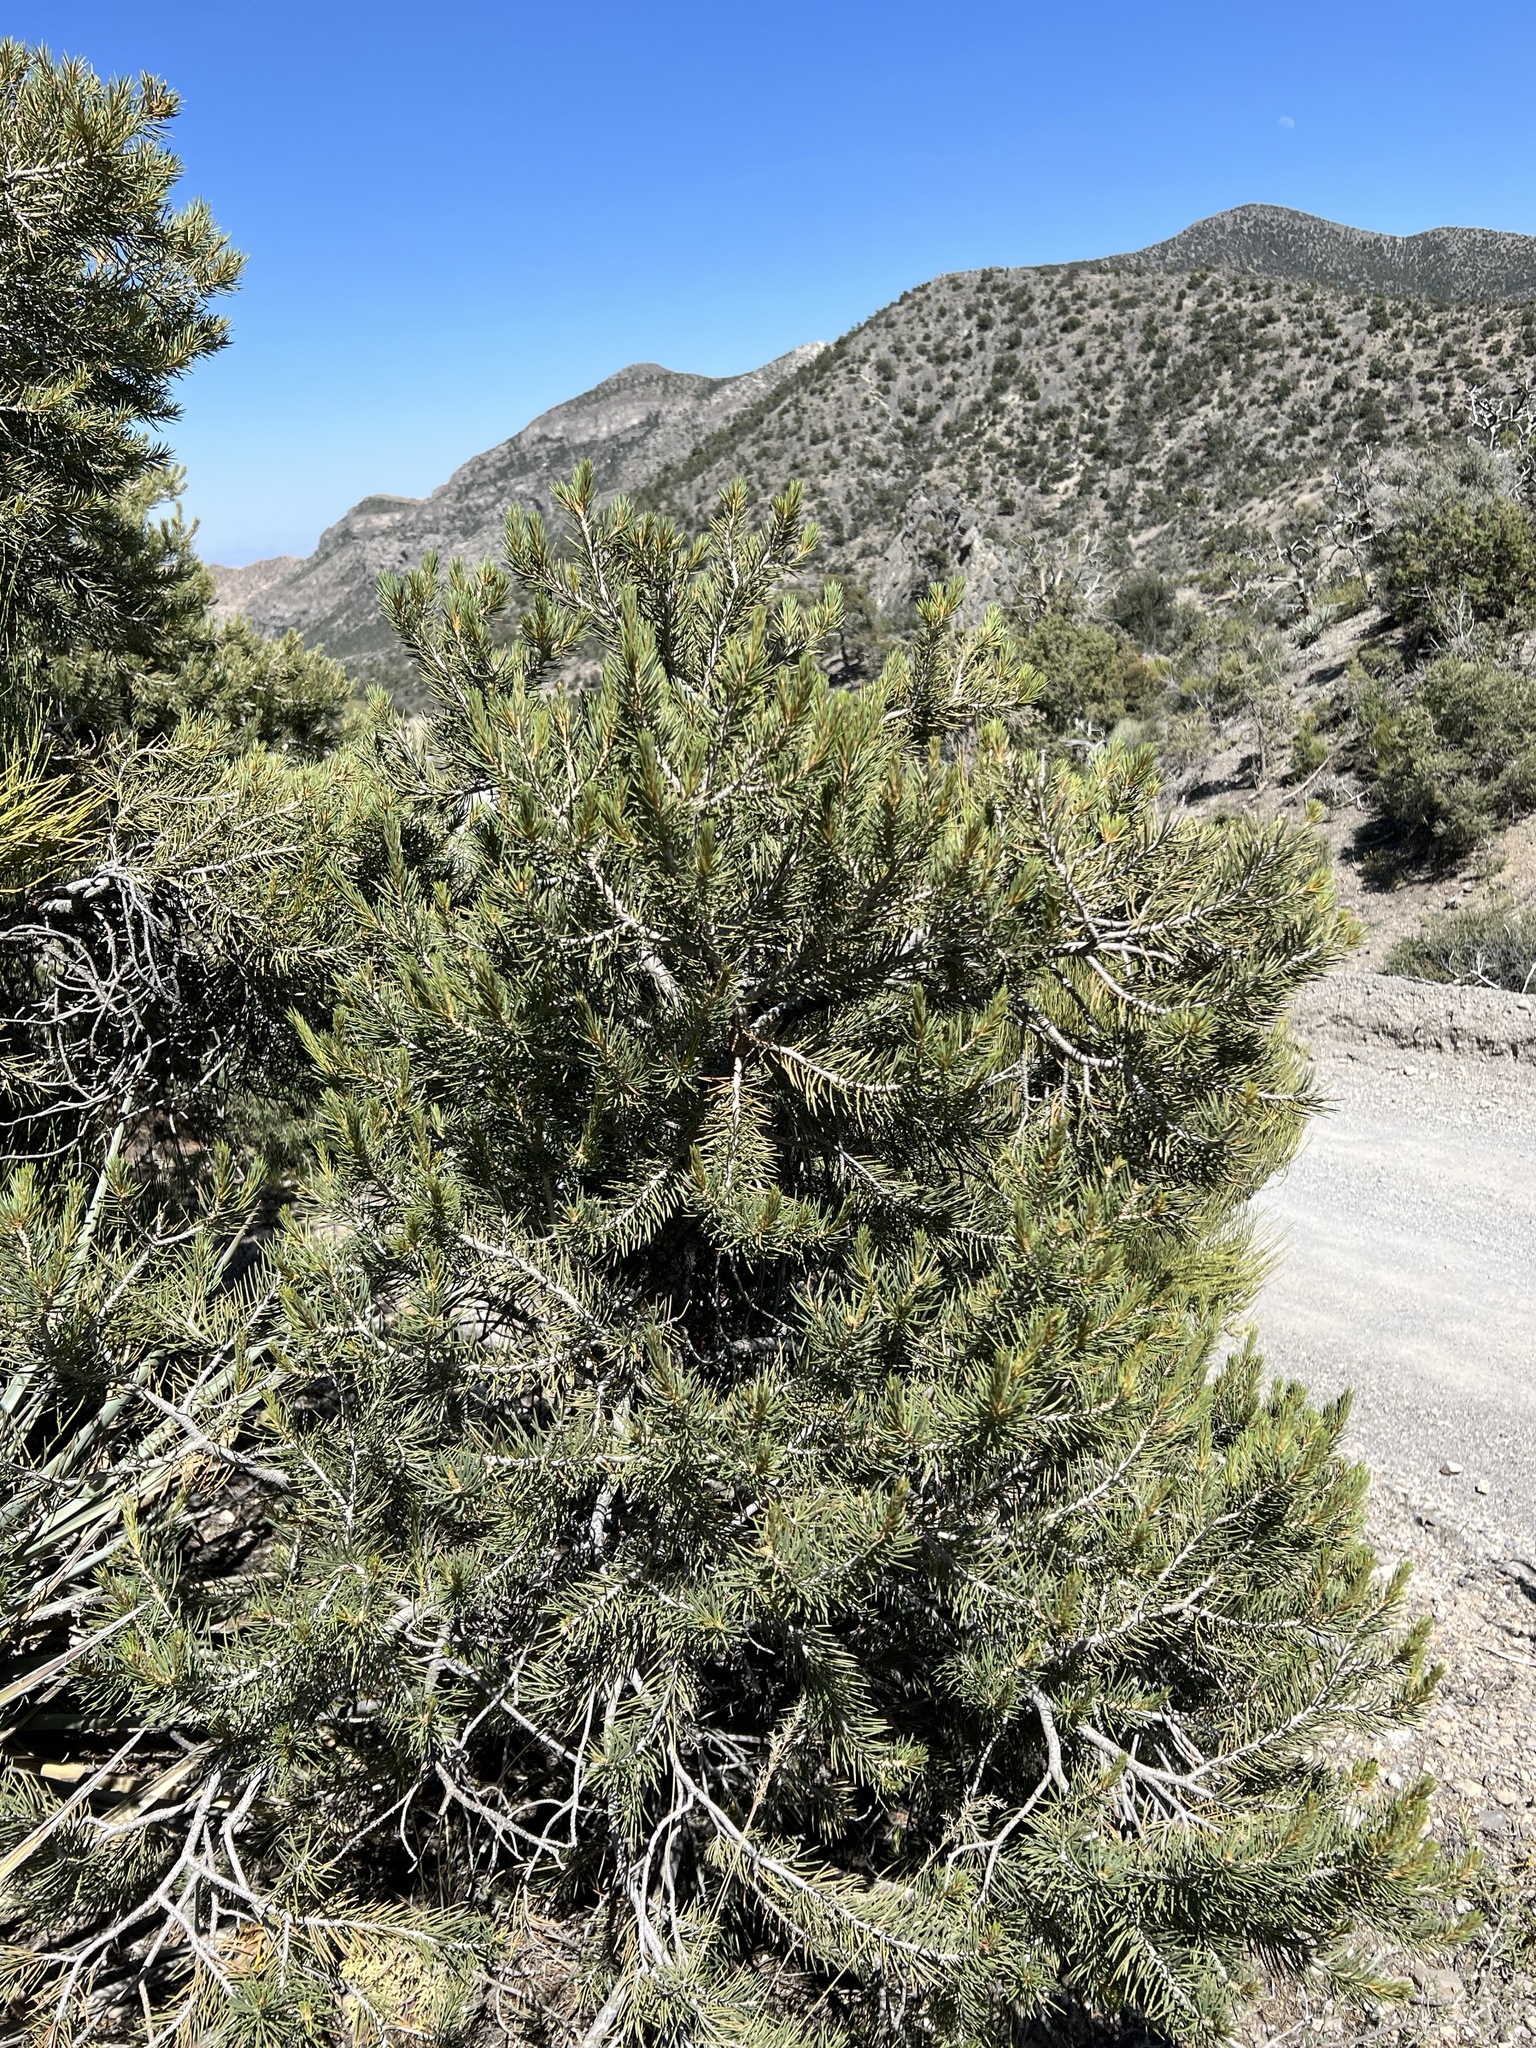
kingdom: Plantae
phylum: Tracheophyta
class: Pinopsida
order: Pinales
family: Pinaceae
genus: Pinus
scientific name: Pinus monophylla
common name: One-leaved nut pine
